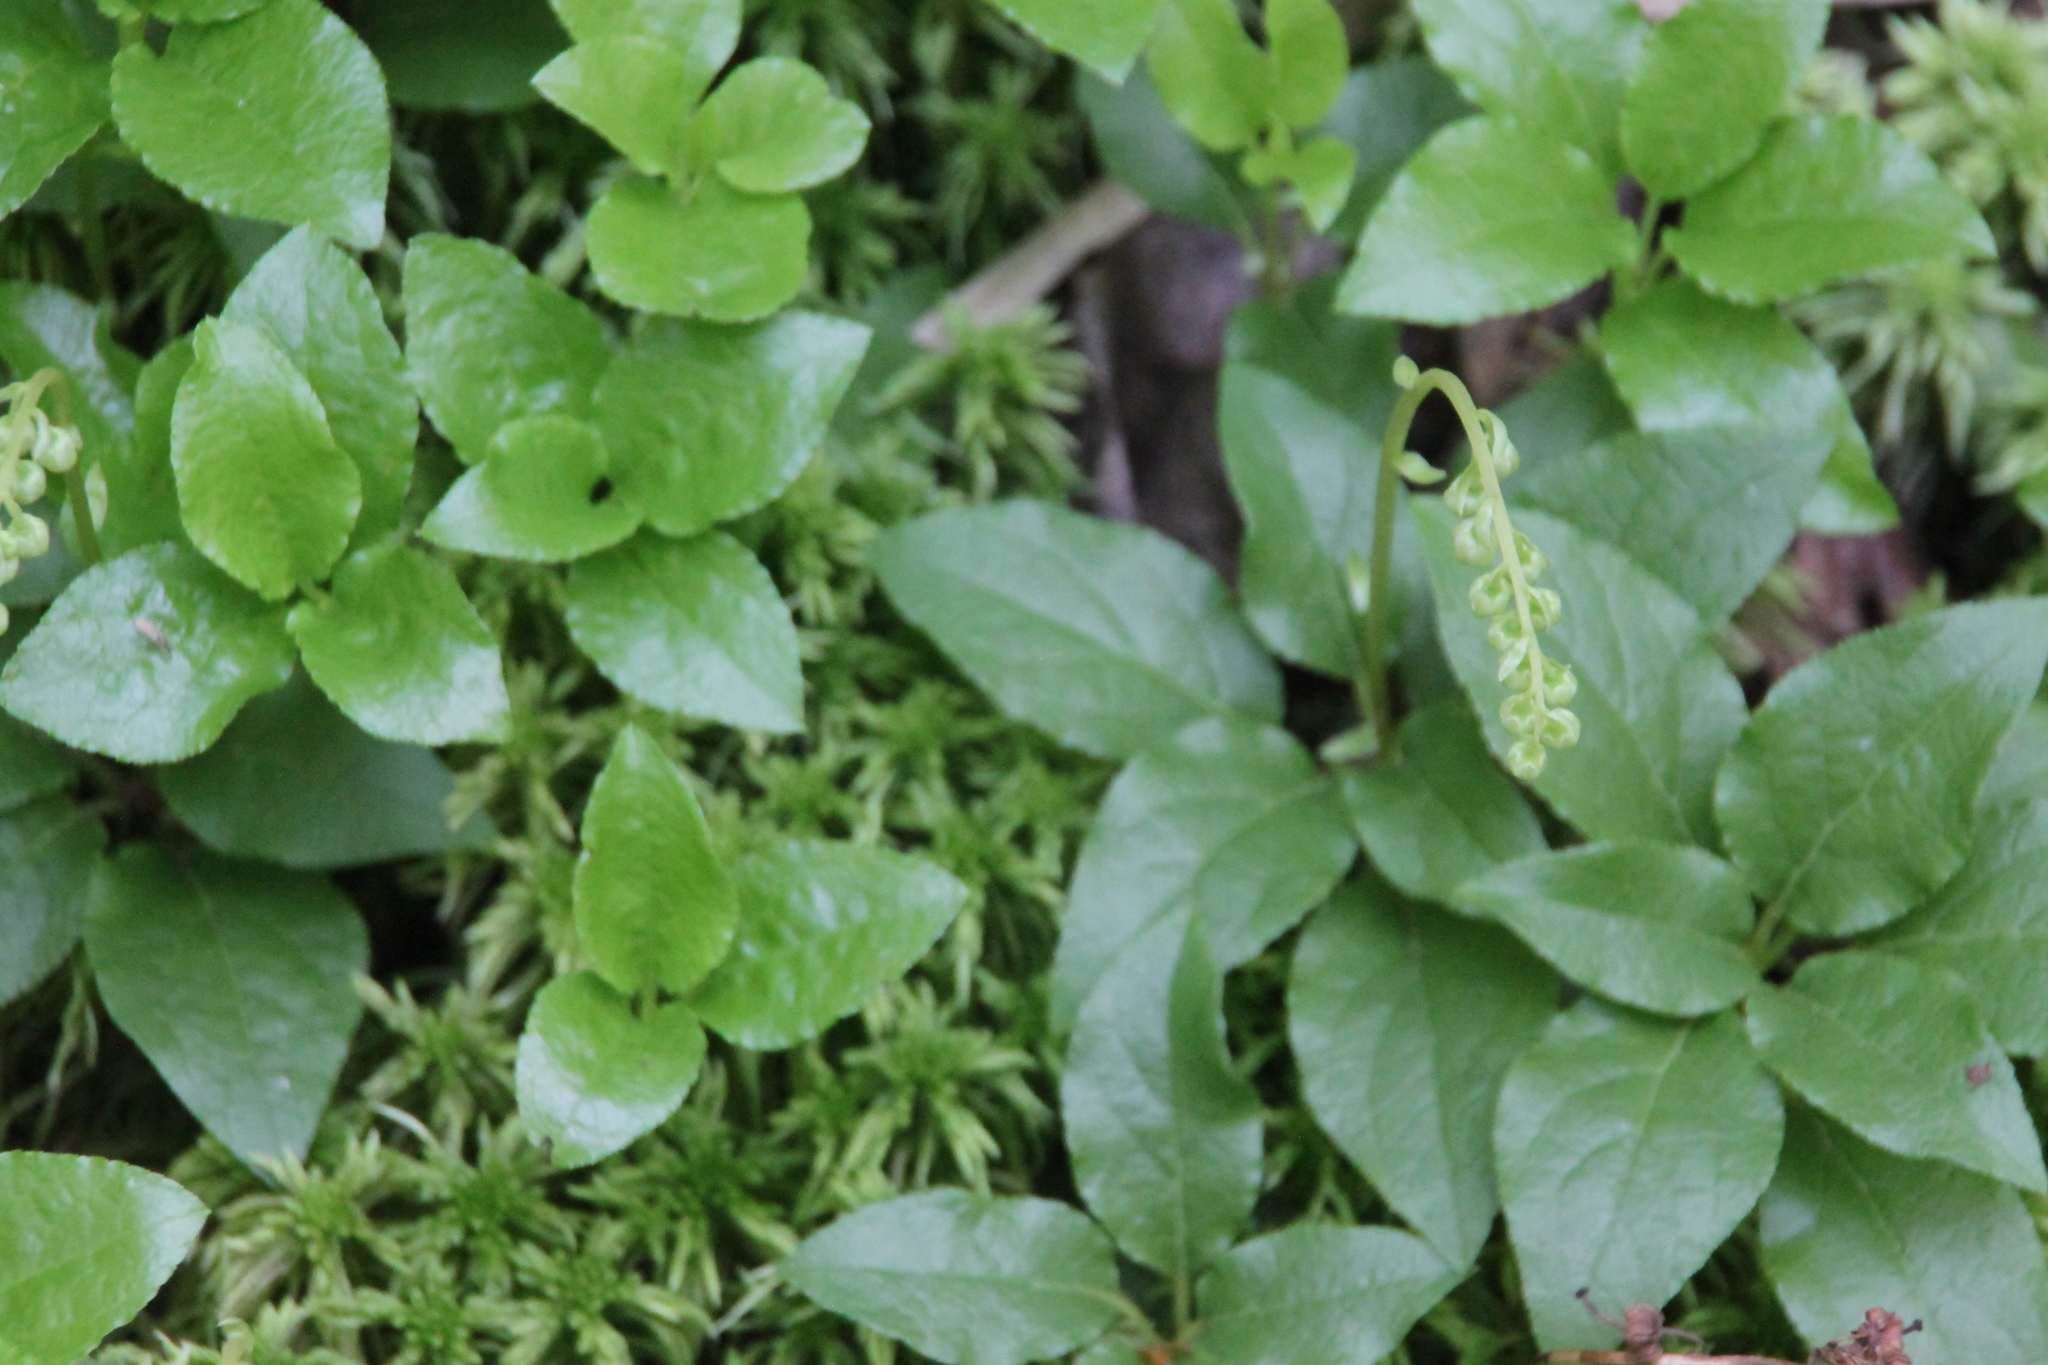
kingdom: Plantae
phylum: Tracheophyta
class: Magnoliopsida
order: Ericales
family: Ericaceae
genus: Orthilia
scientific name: Orthilia secunda
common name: One-sided orthilia
